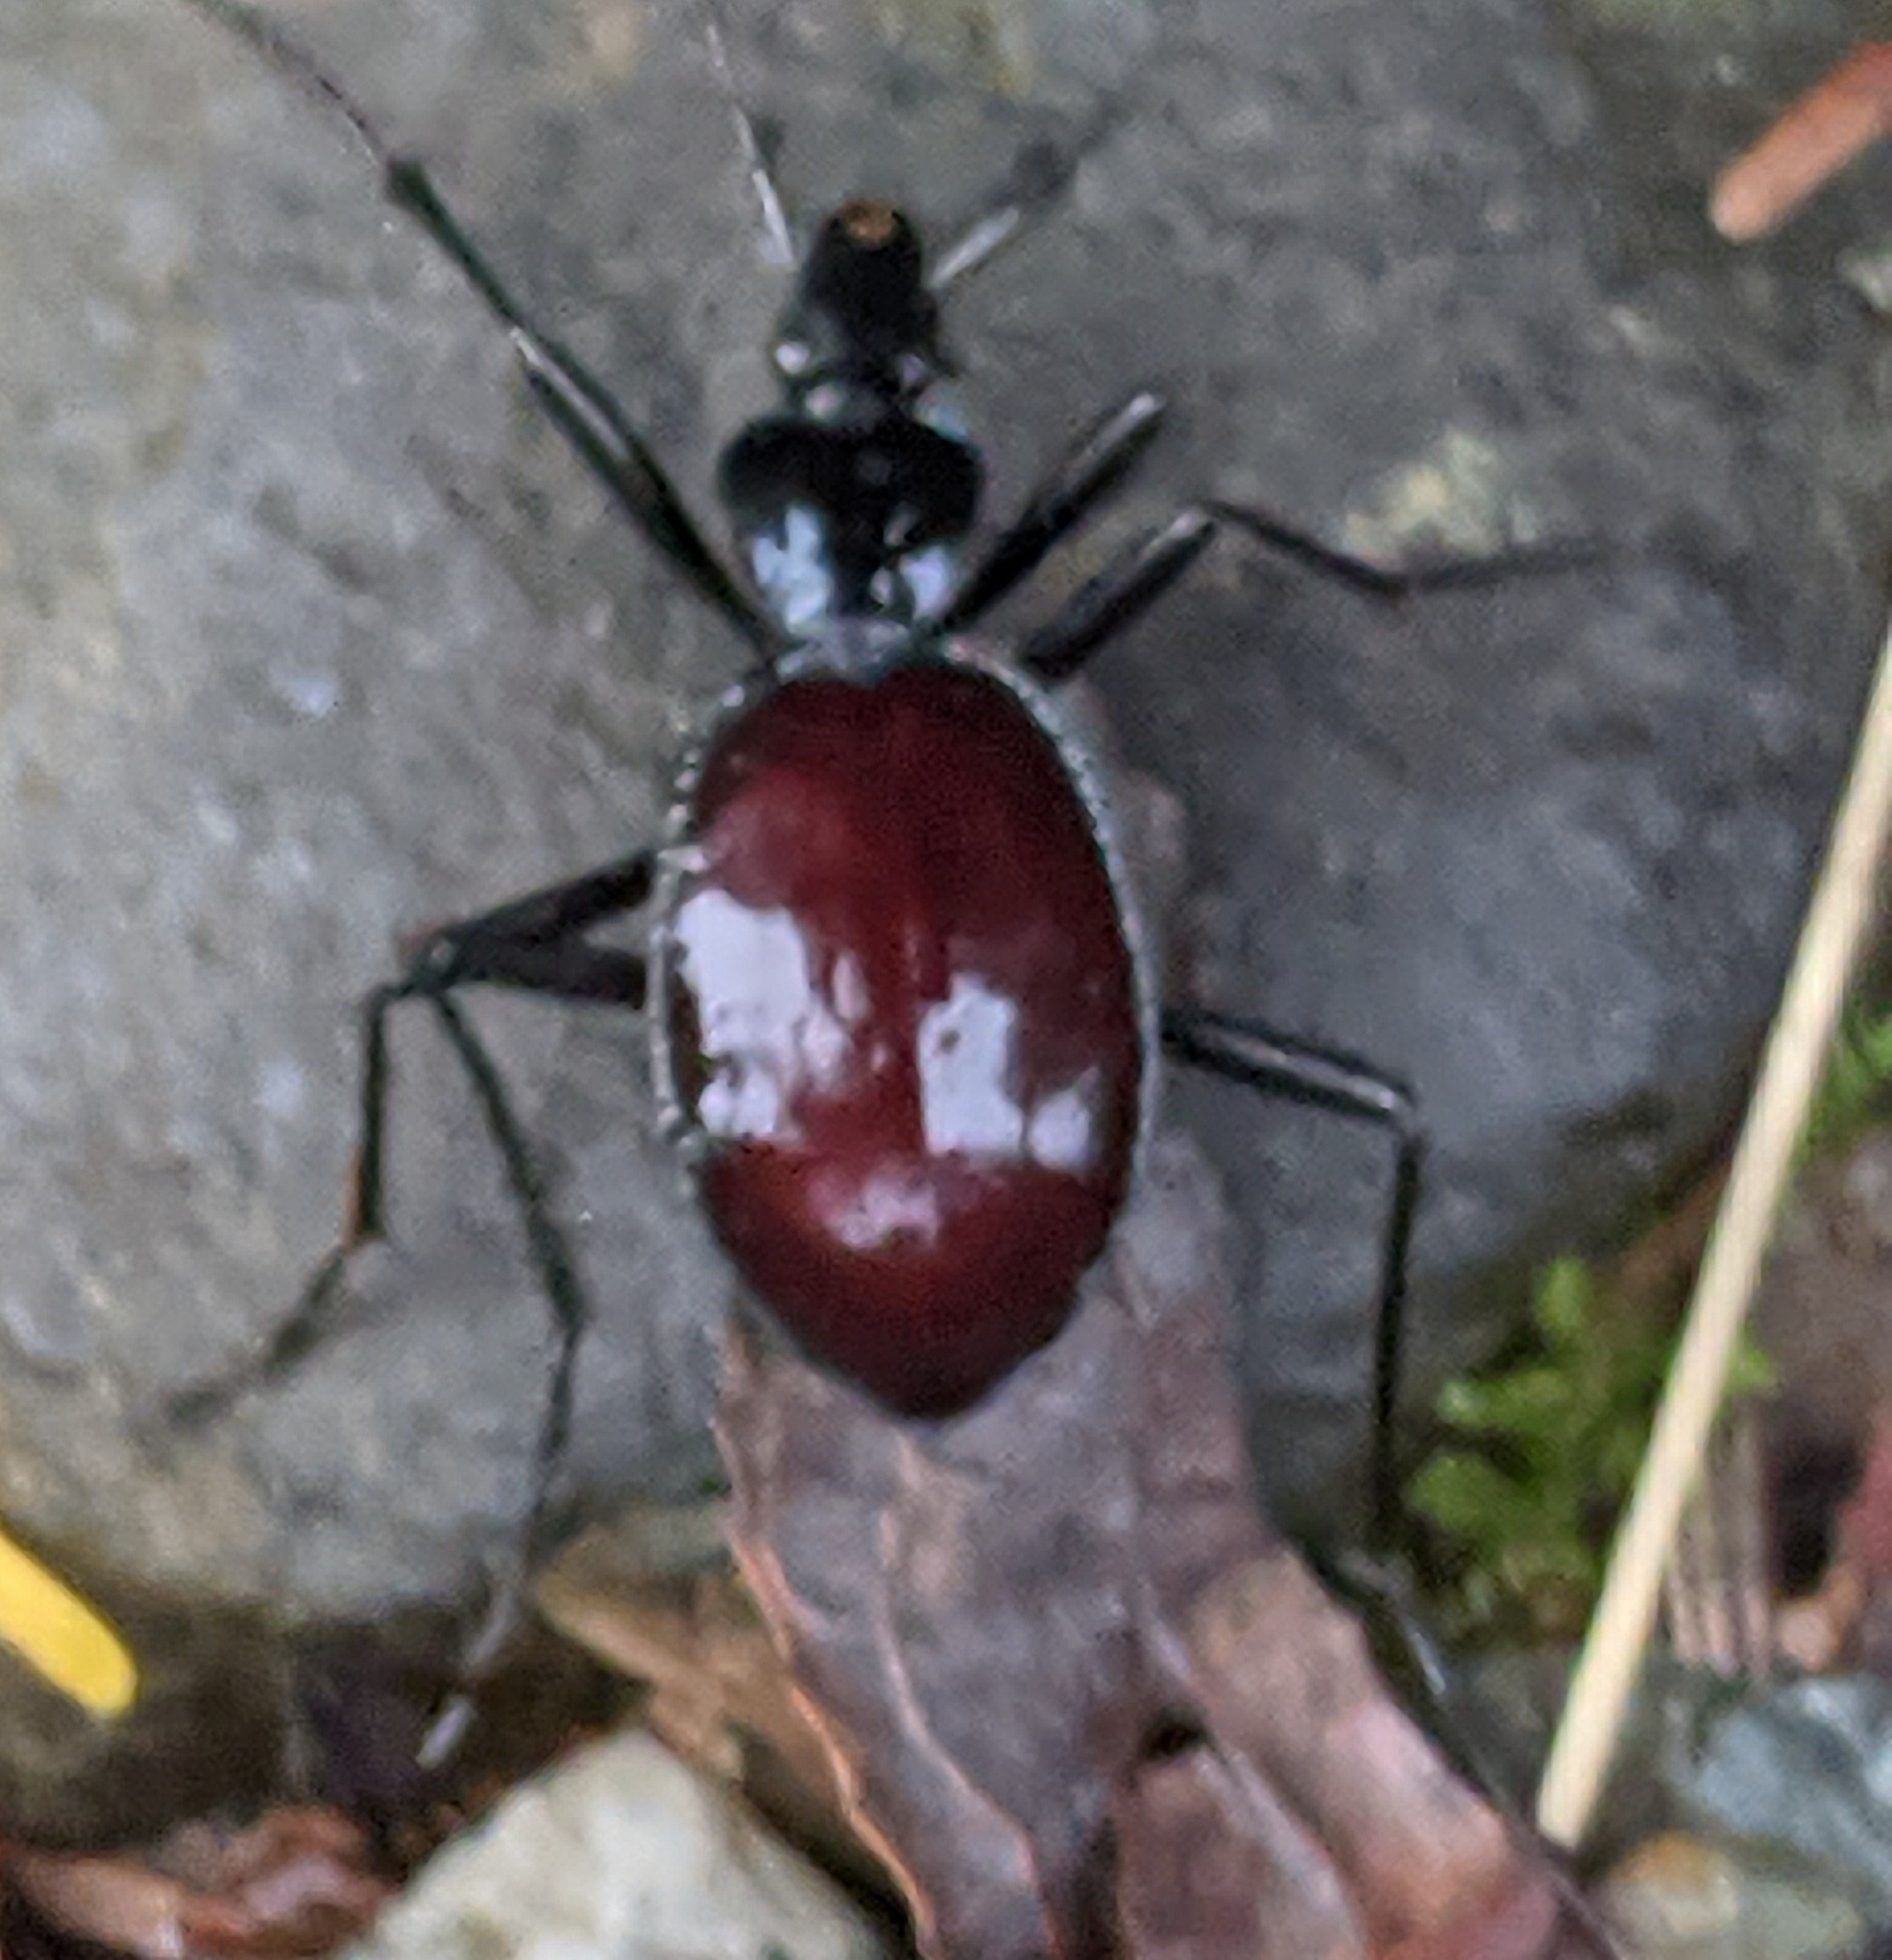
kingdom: Animalia
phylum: Arthropoda
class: Insecta
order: Coleoptera
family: Carabidae
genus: Scaphinotus
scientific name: Scaphinotus angusticollis
